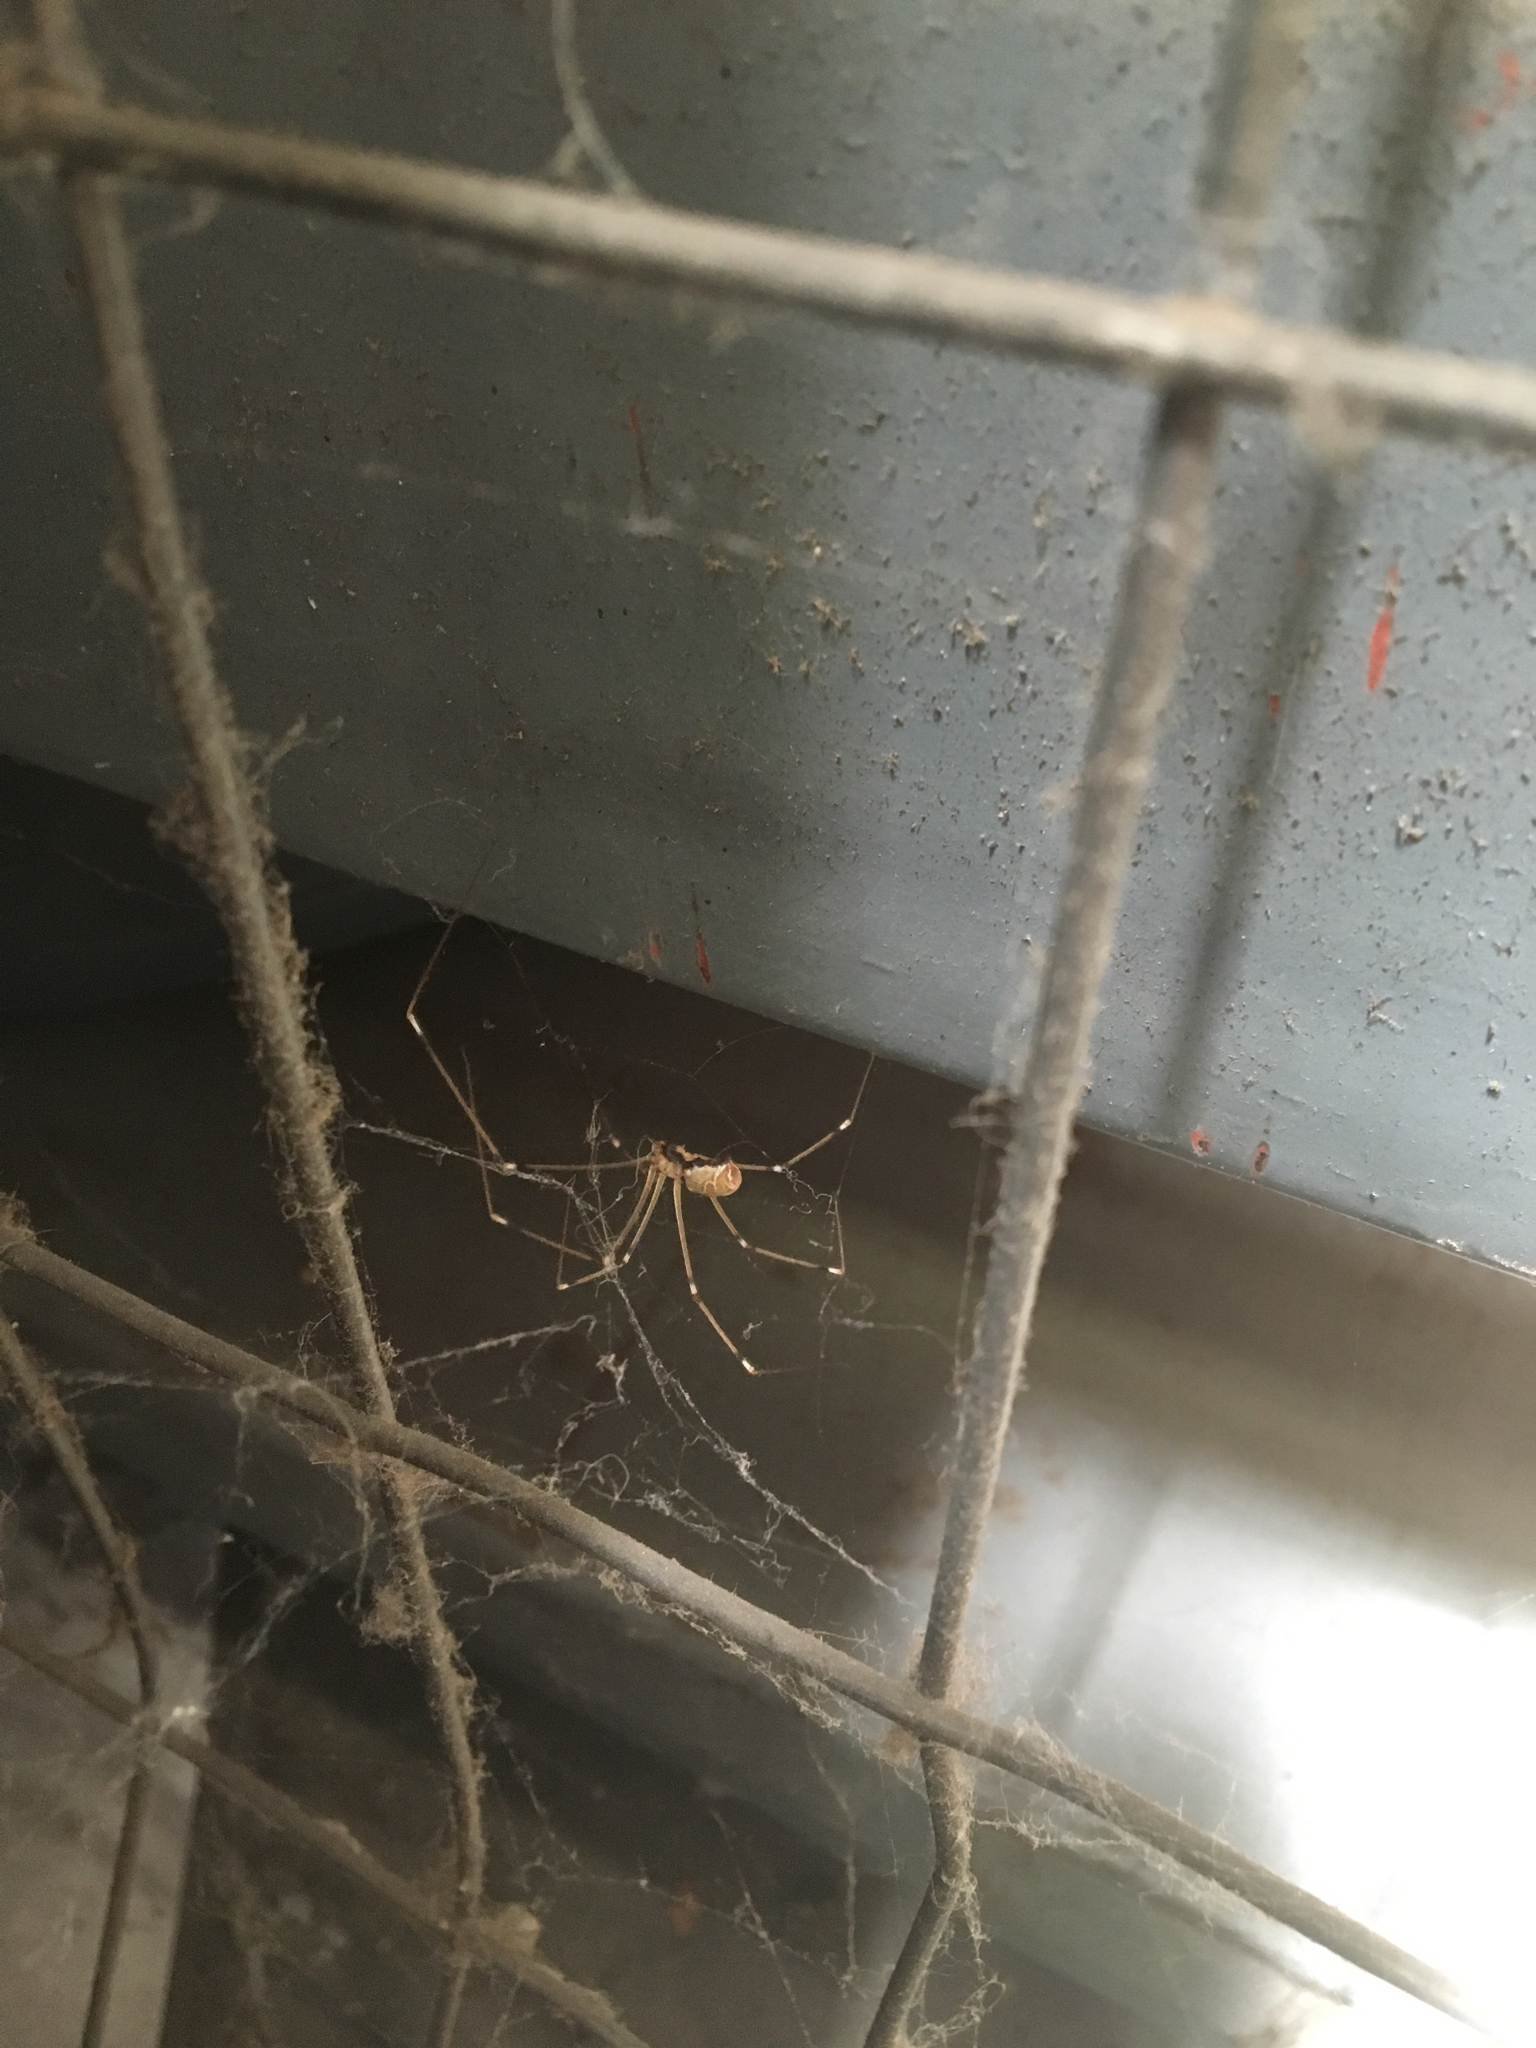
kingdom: Animalia
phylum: Arthropoda
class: Arachnida
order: Araneae
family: Pholcidae
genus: Holocnemus
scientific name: Holocnemus pluchei
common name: Marbled cellar spider
